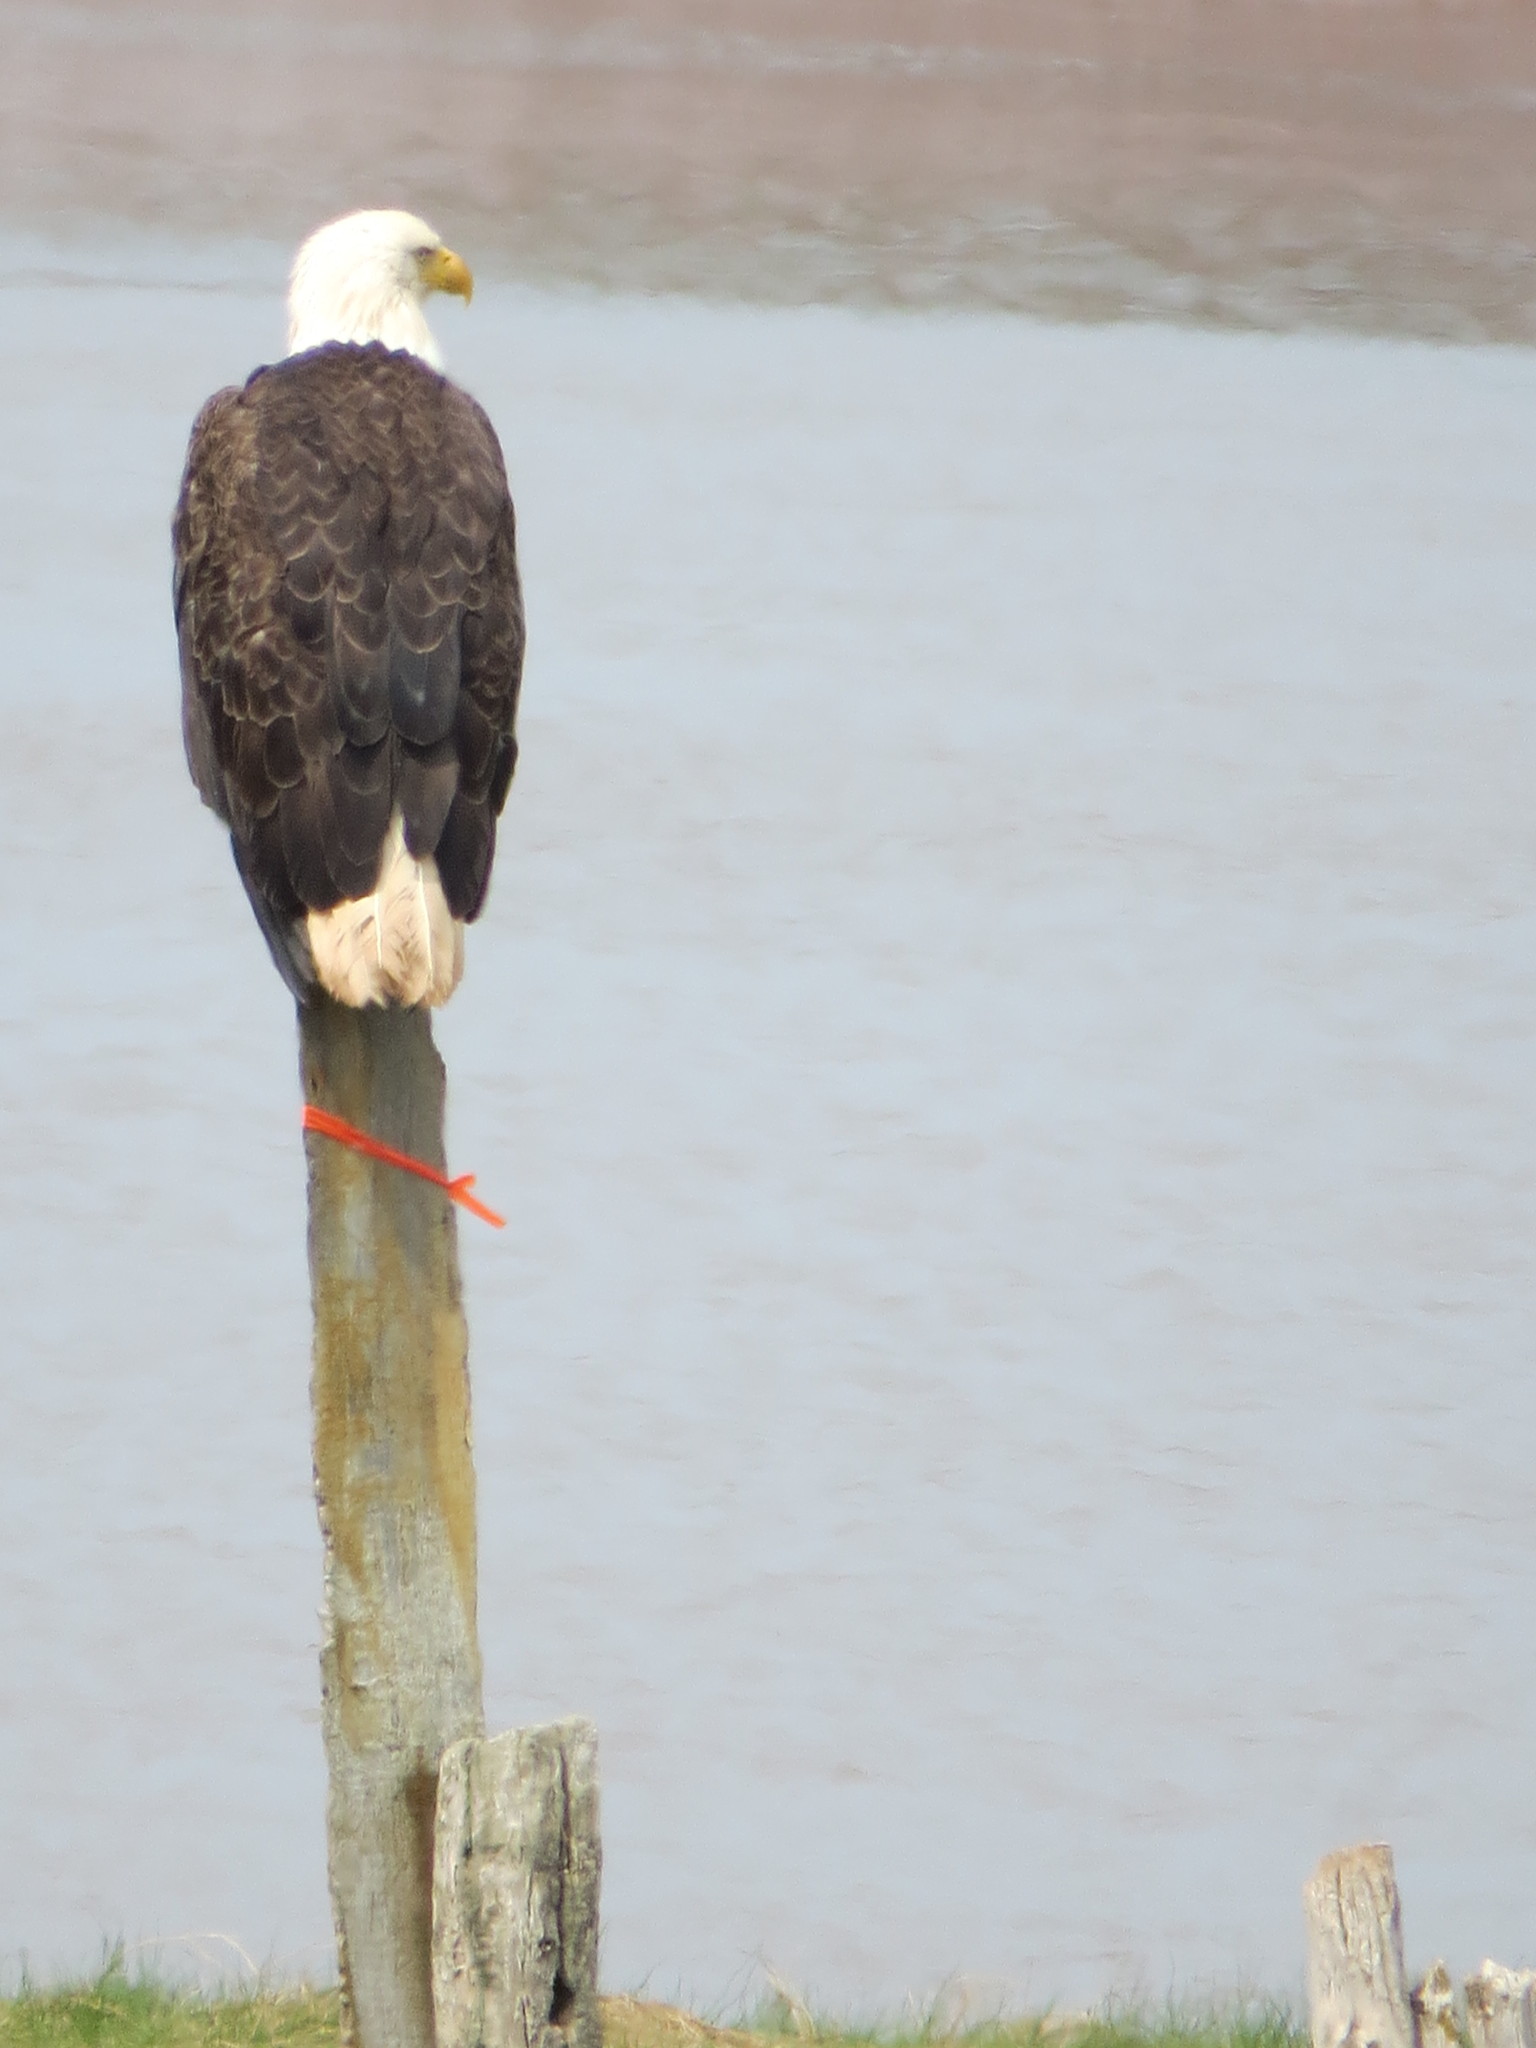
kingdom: Animalia
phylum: Chordata
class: Aves
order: Accipitriformes
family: Accipitridae
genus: Haliaeetus
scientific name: Haliaeetus leucocephalus
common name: Bald eagle
